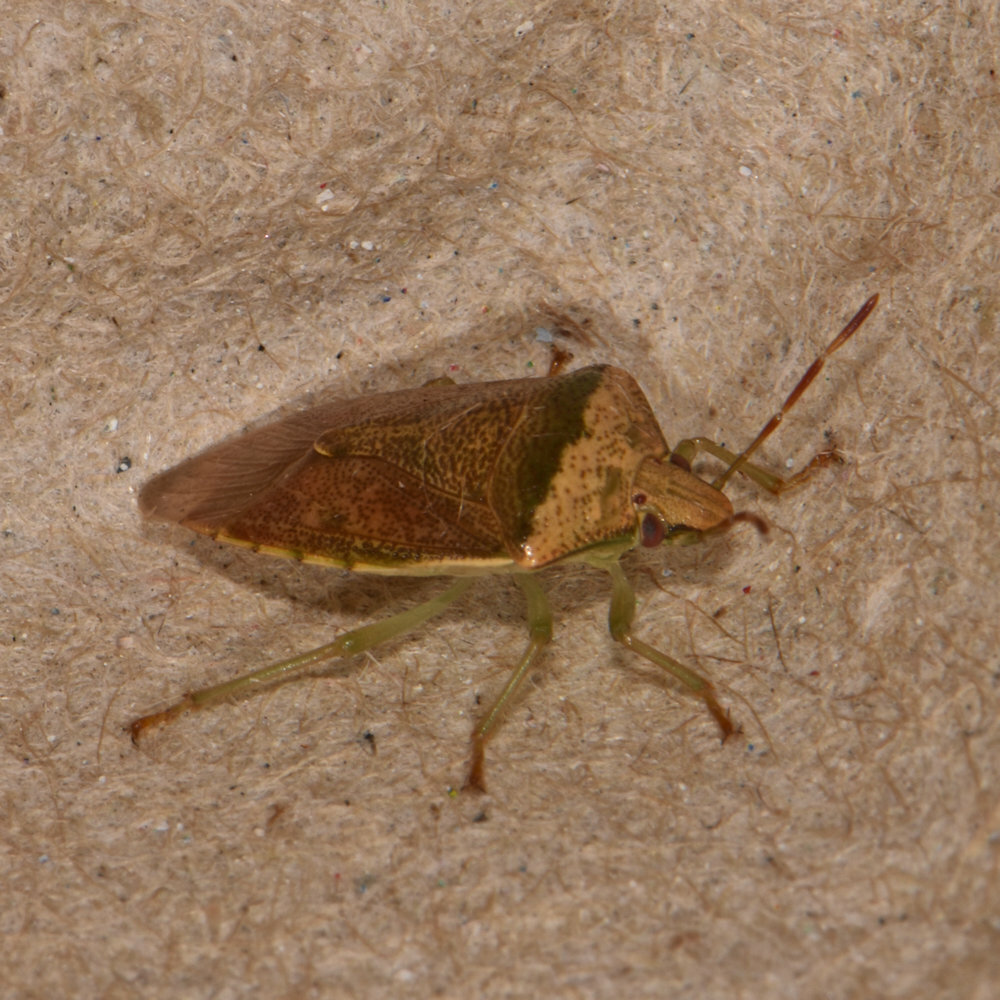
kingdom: Animalia
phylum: Arthropoda
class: Insecta
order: Hemiptera
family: Pentatomidae
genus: Banasa
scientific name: Banasa calva
